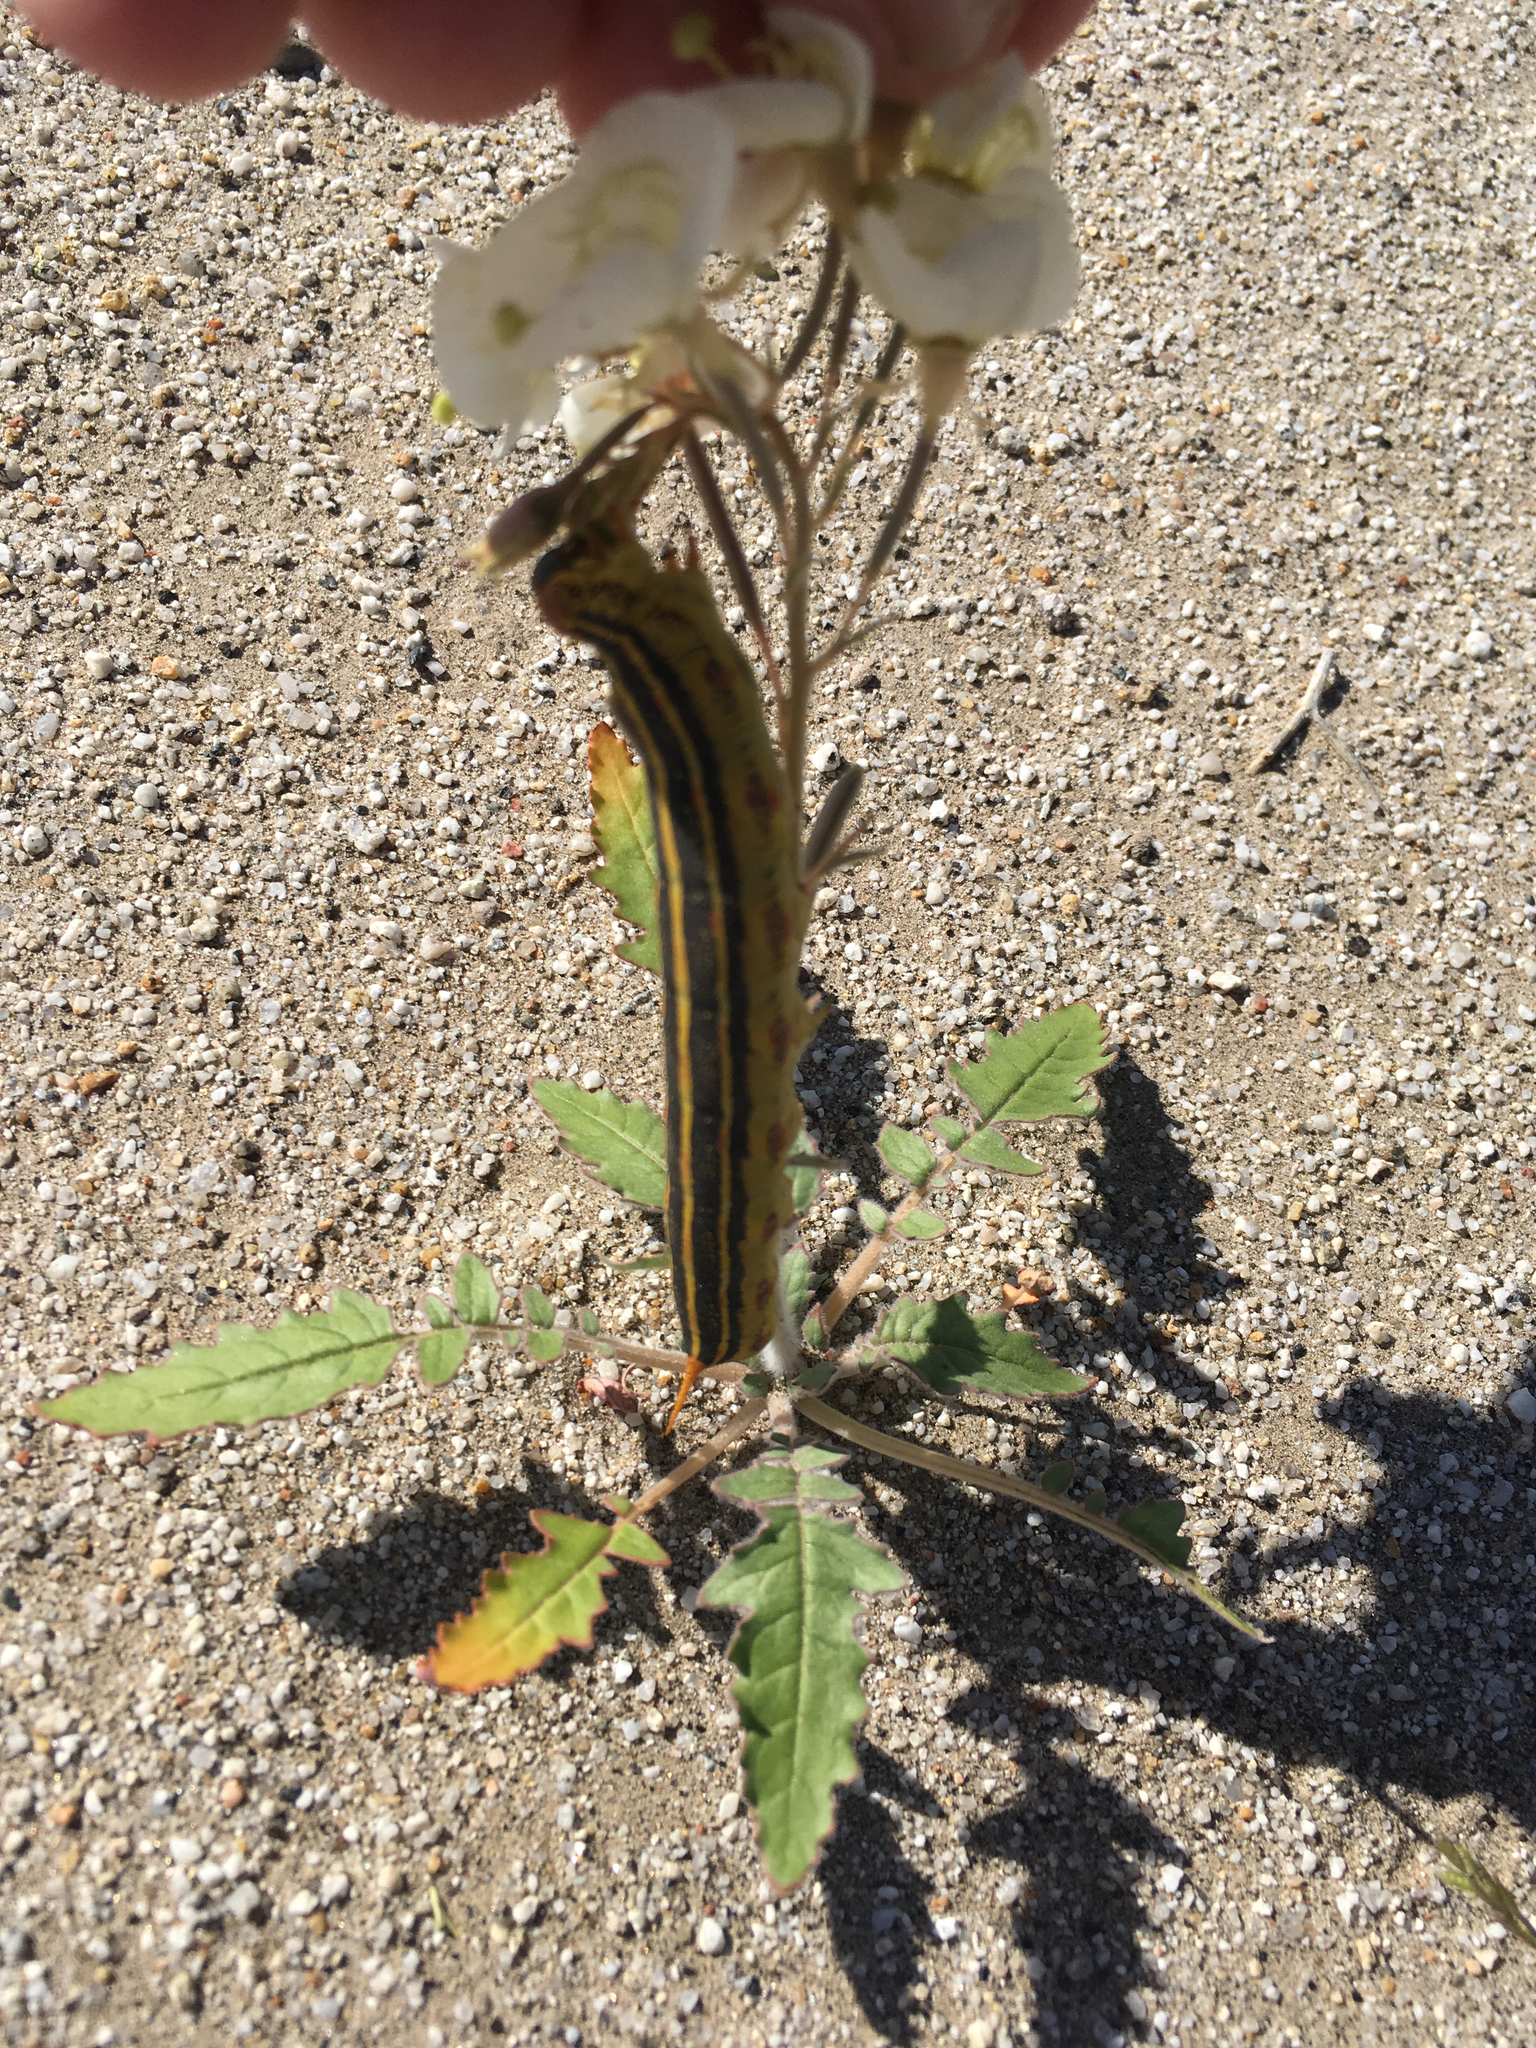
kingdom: Animalia
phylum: Arthropoda
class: Insecta
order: Lepidoptera
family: Sphingidae
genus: Hyles
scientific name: Hyles lineata
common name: White-lined sphinx
